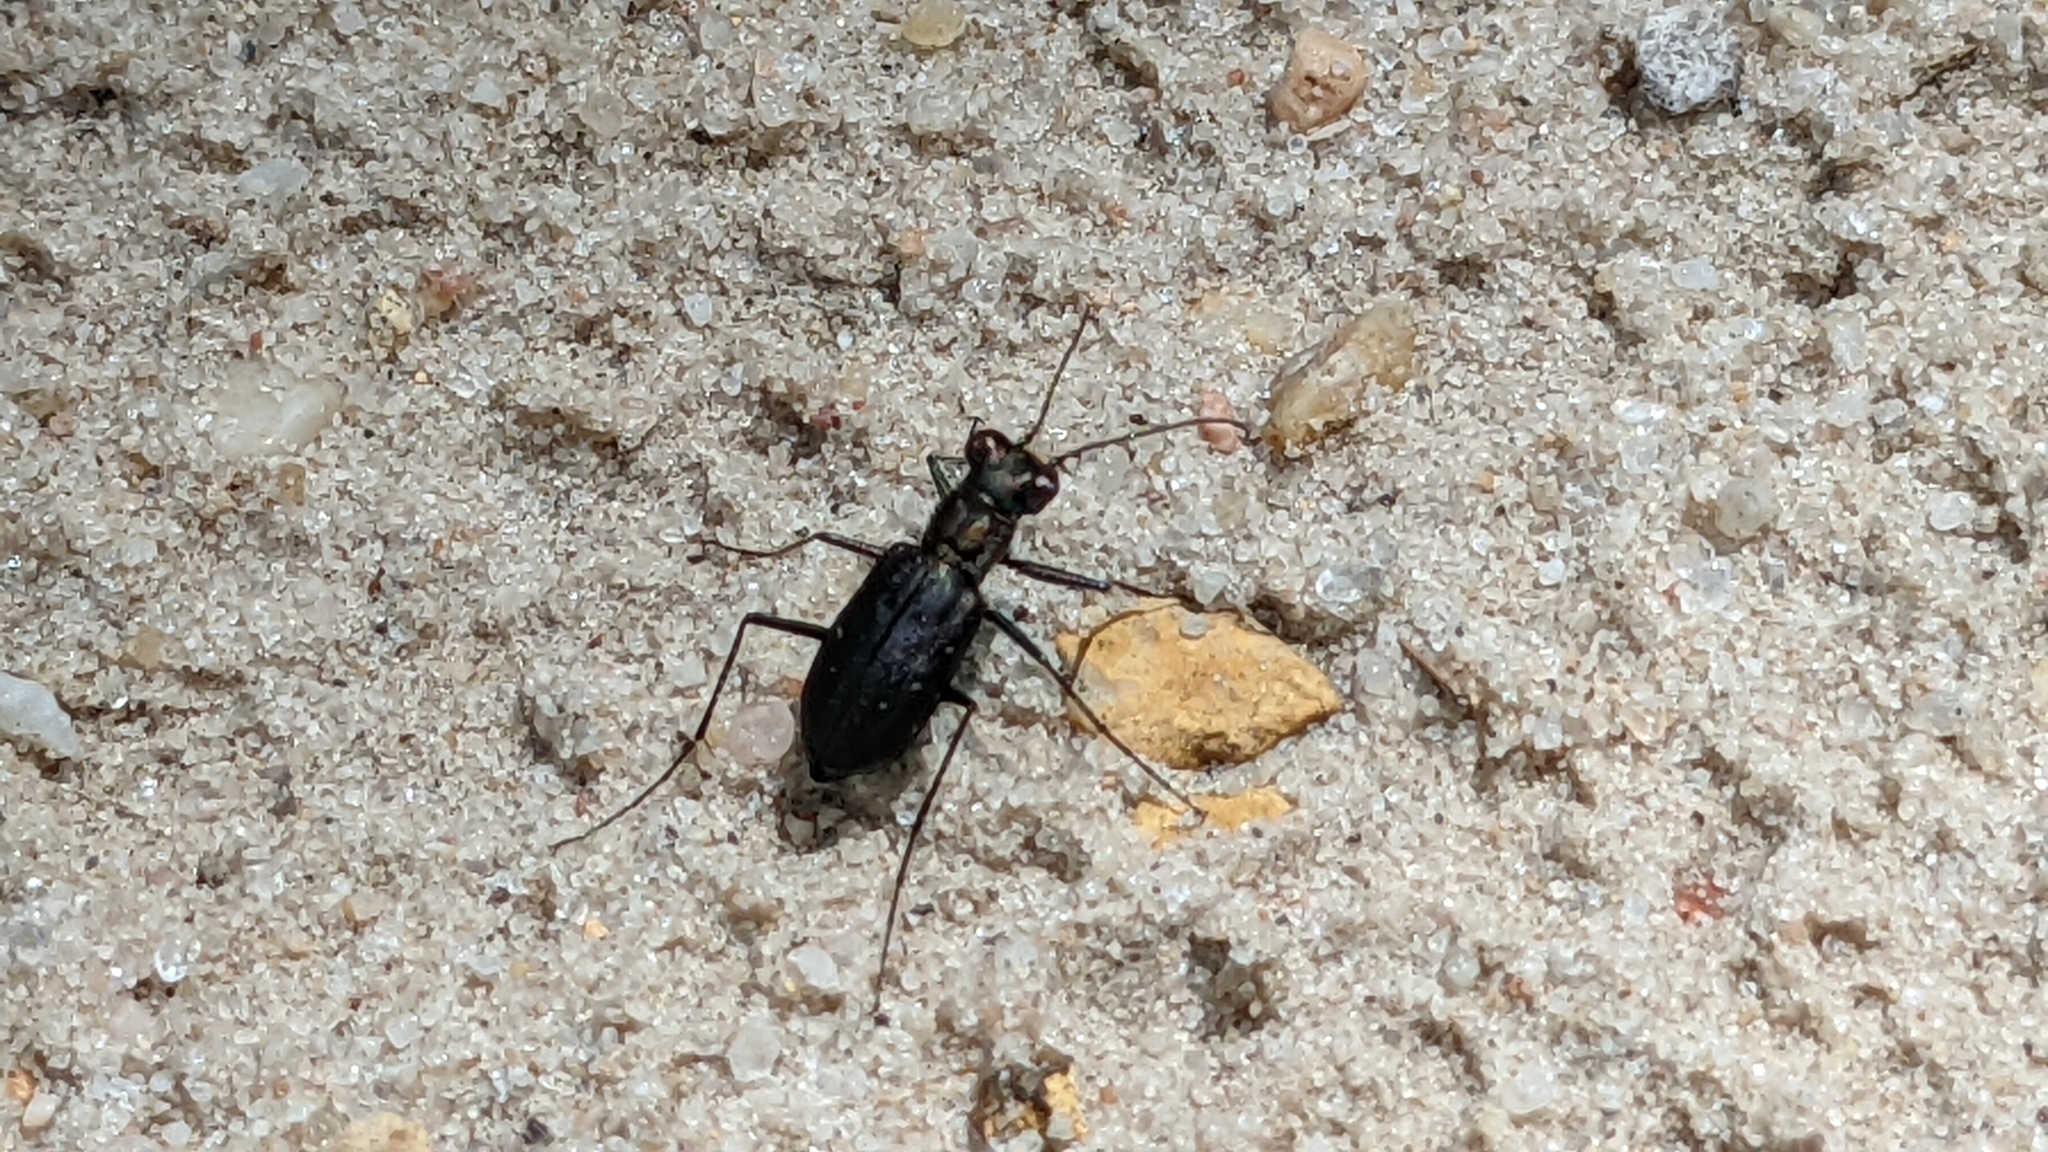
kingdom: Animalia
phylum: Arthropoda
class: Insecta
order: Coleoptera
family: Carabidae
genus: Cicindela
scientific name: Cicindela punctulata
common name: Punctured tiger beetle
